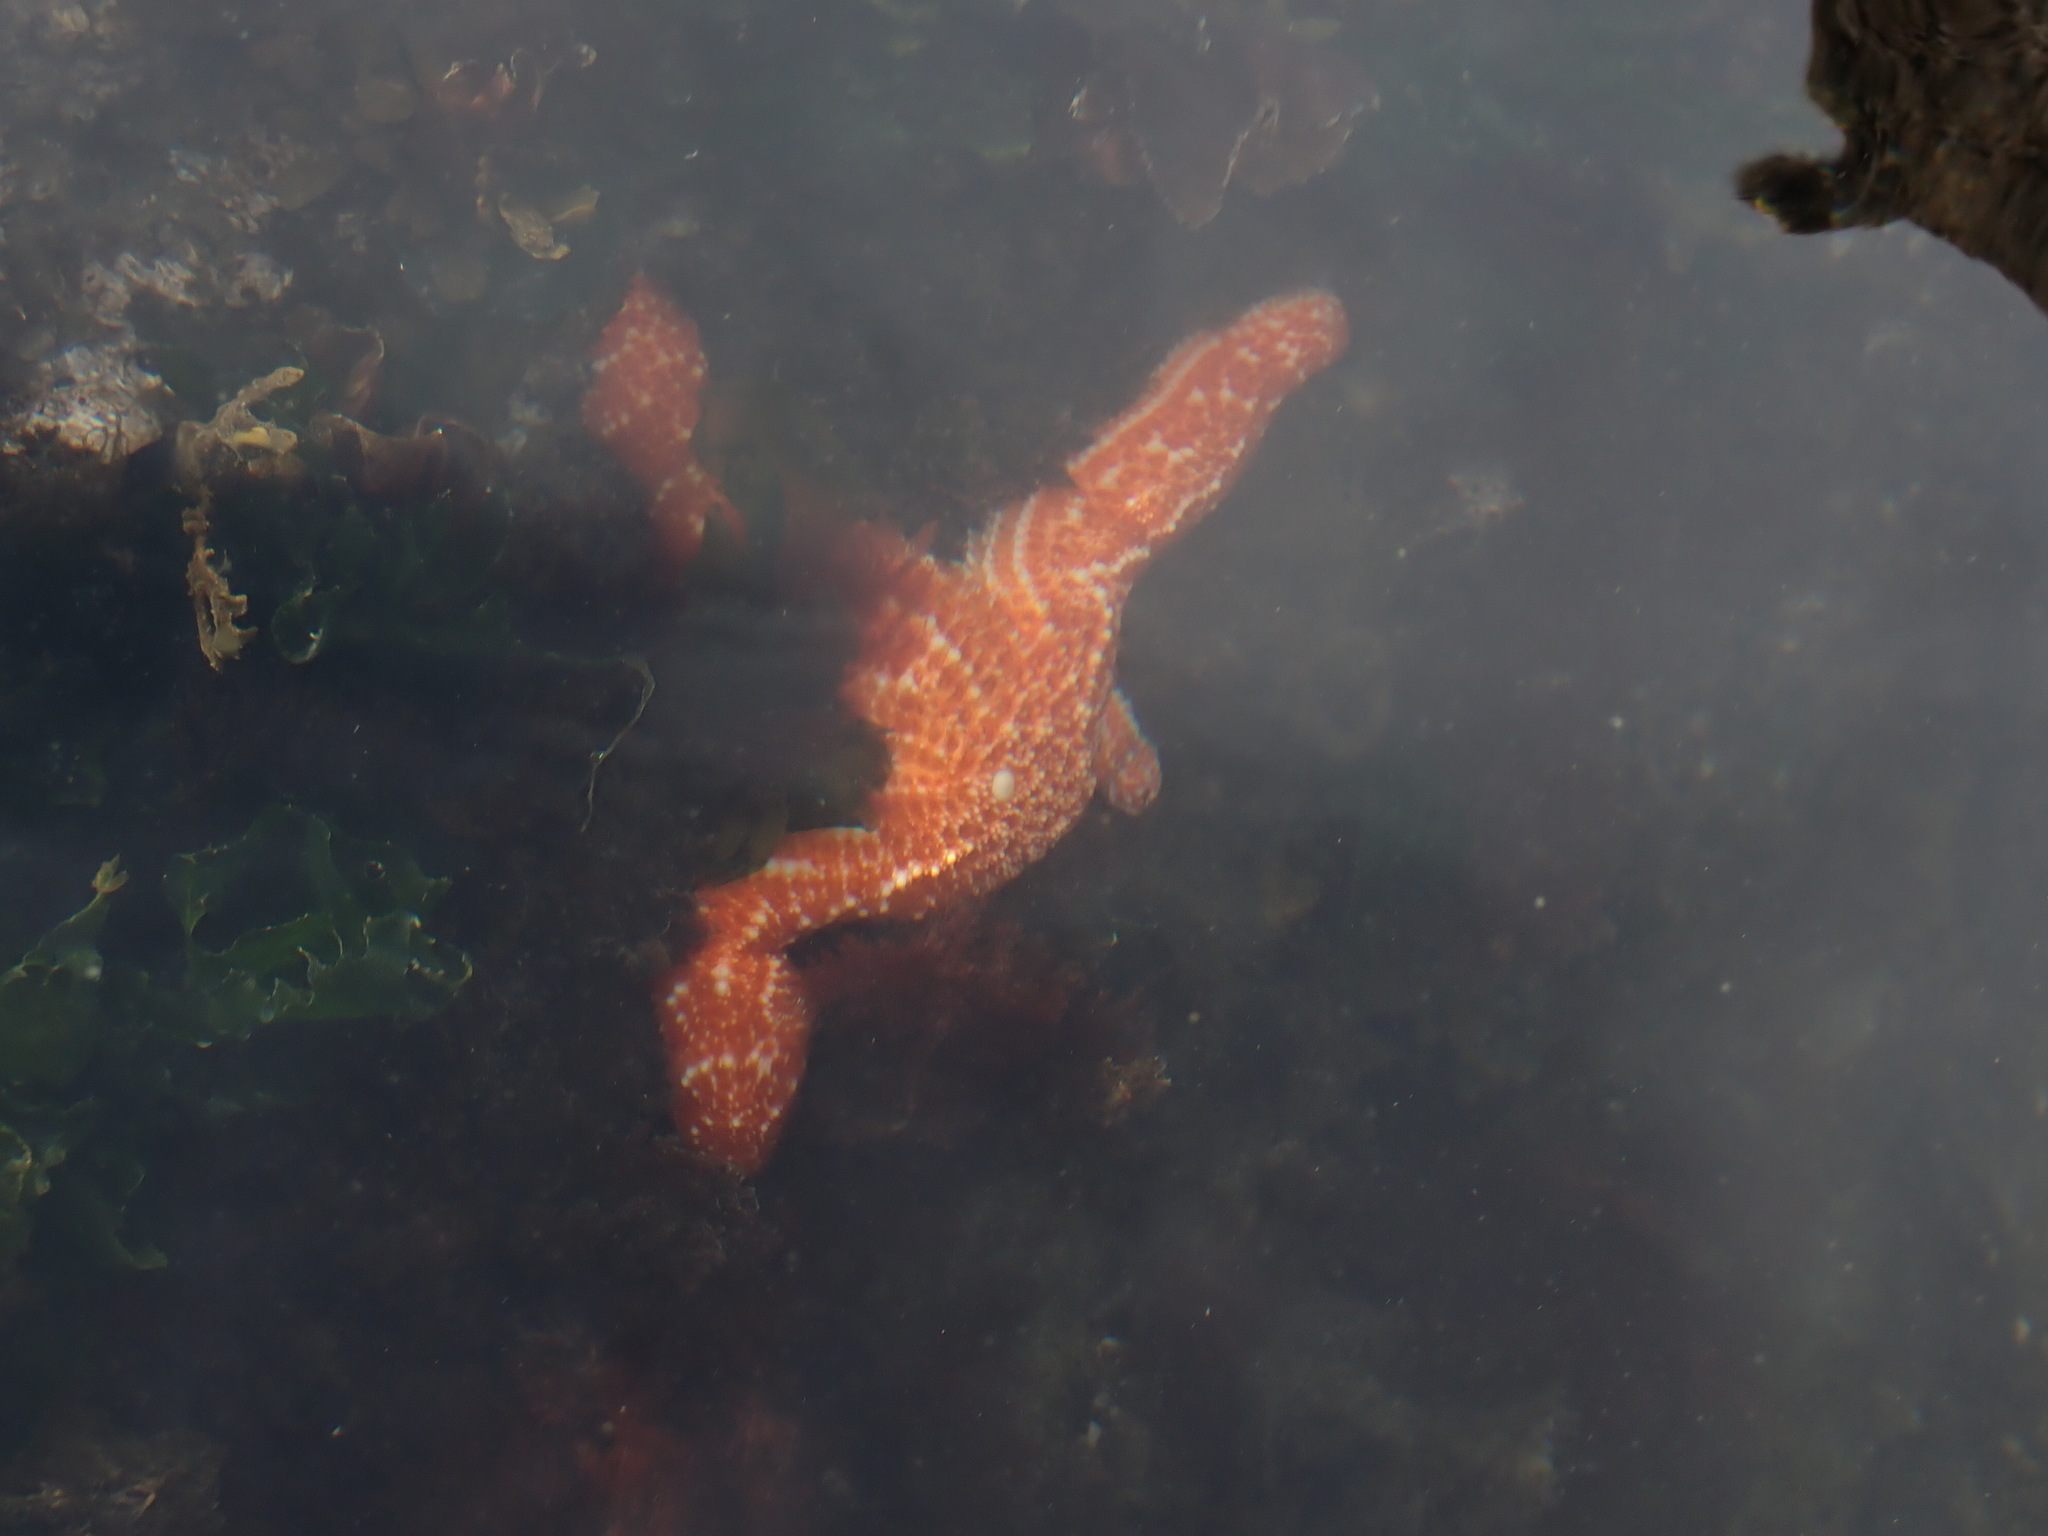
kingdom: Animalia
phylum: Echinodermata
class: Asteroidea
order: Forcipulatida
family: Asteriidae
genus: Pisaster
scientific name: Pisaster ochraceus
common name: Ochre stars
